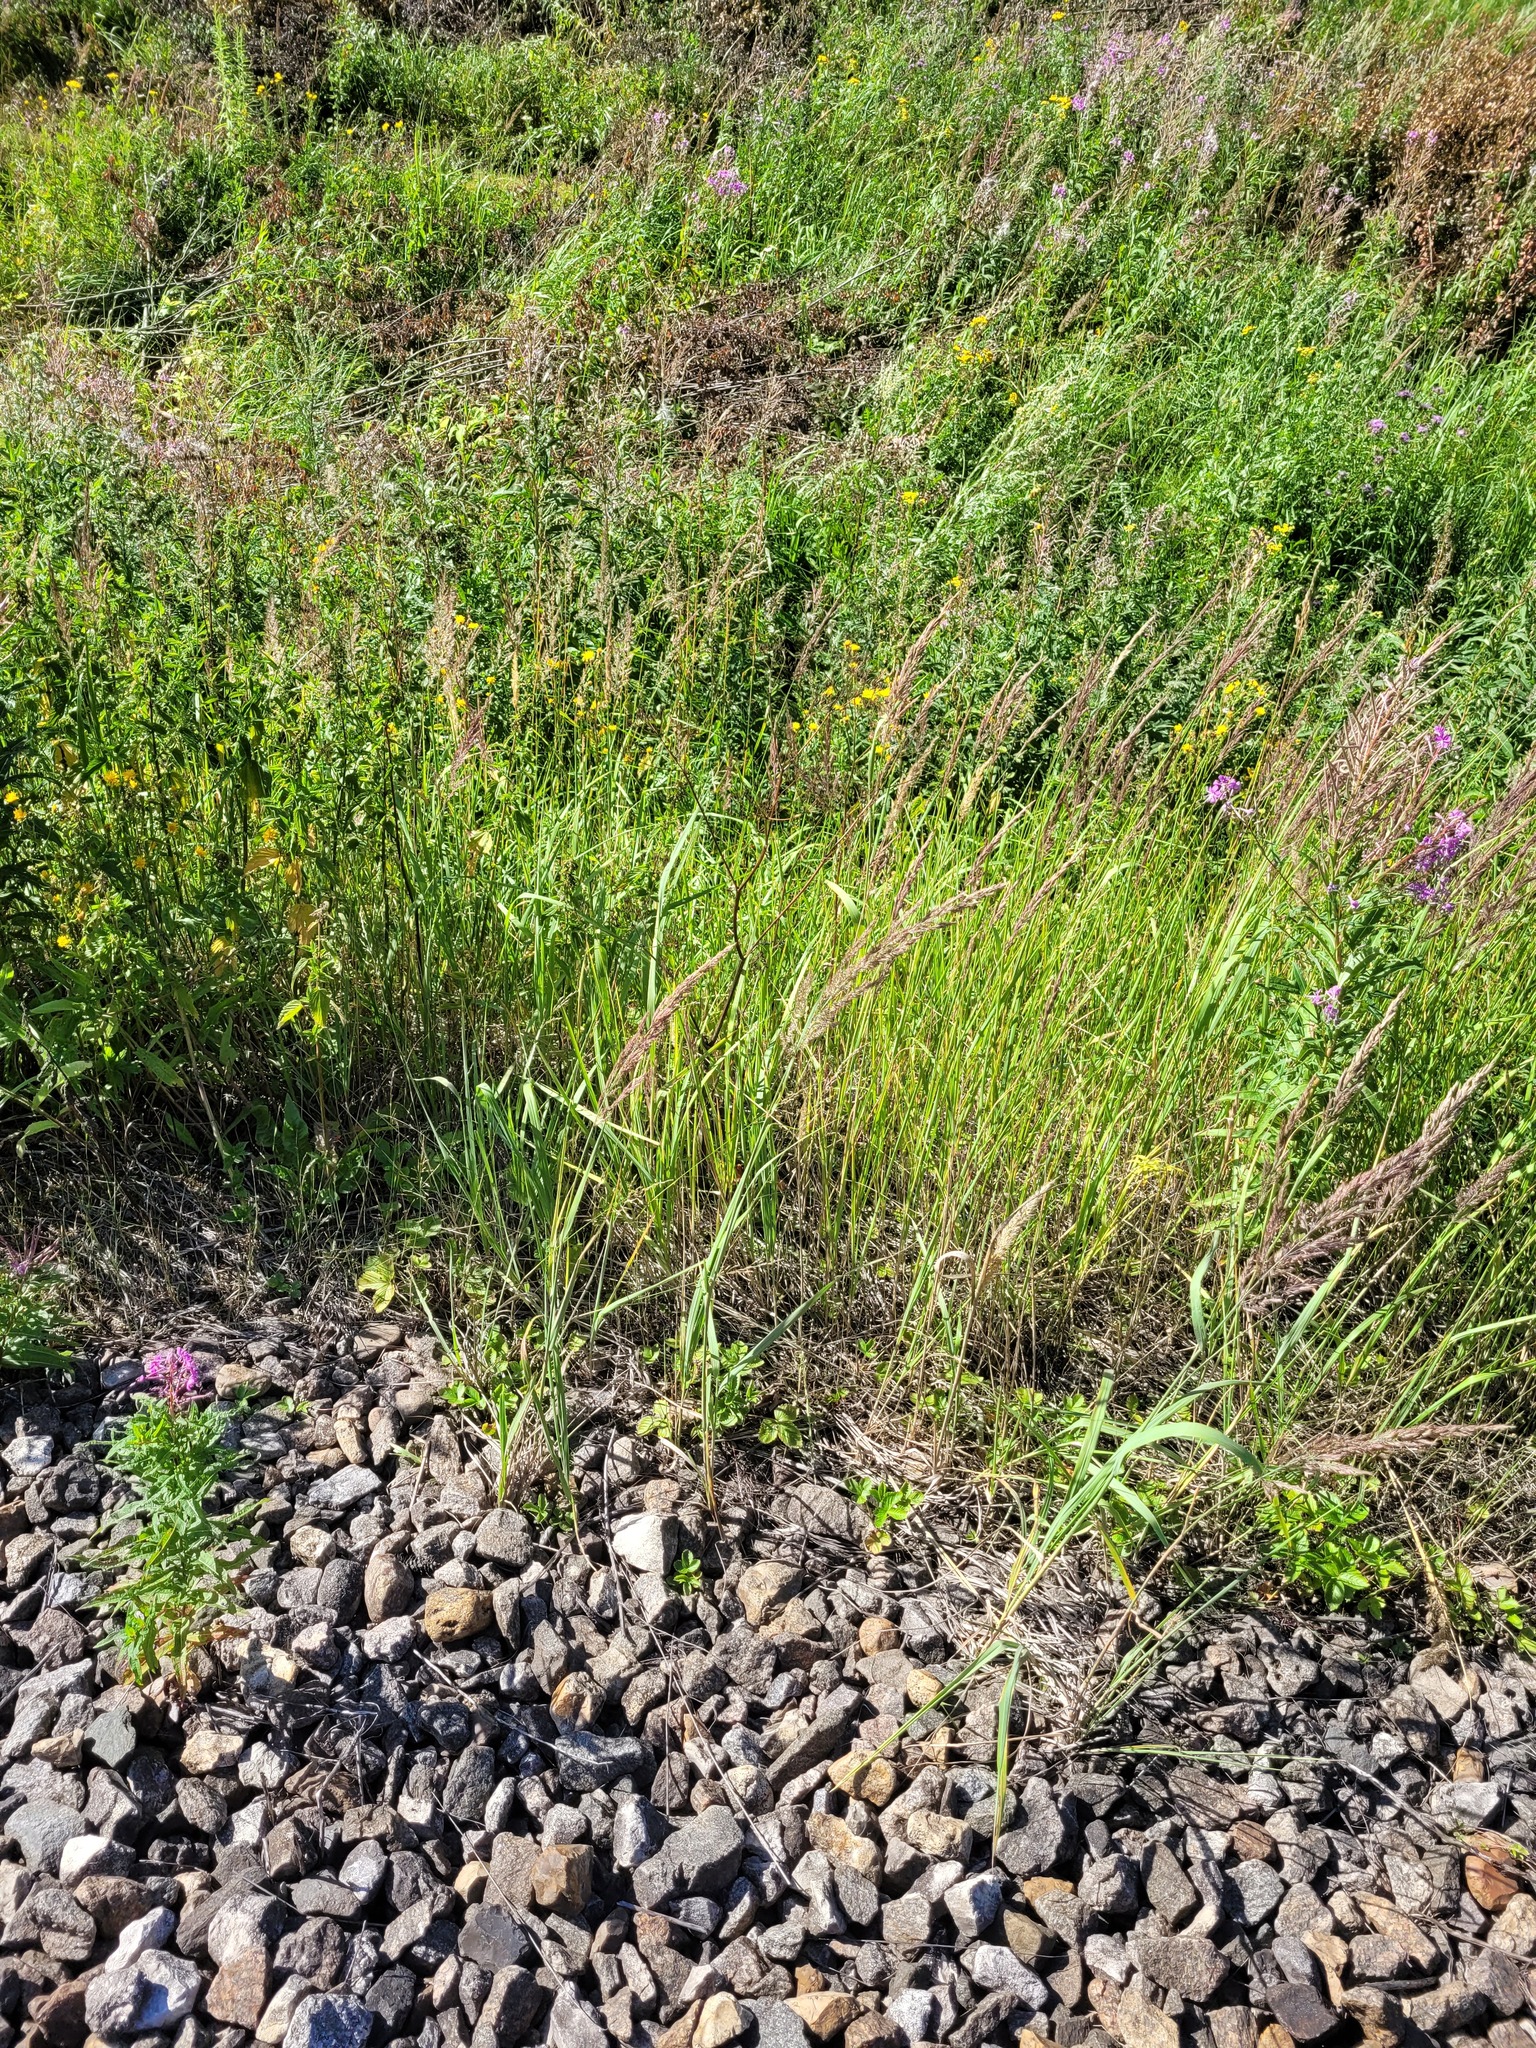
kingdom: Plantae
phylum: Tracheophyta
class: Liliopsida
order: Poales
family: Poaceae
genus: Calamagrostis
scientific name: Calamagrostis epigejos
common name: Wood small-reed
